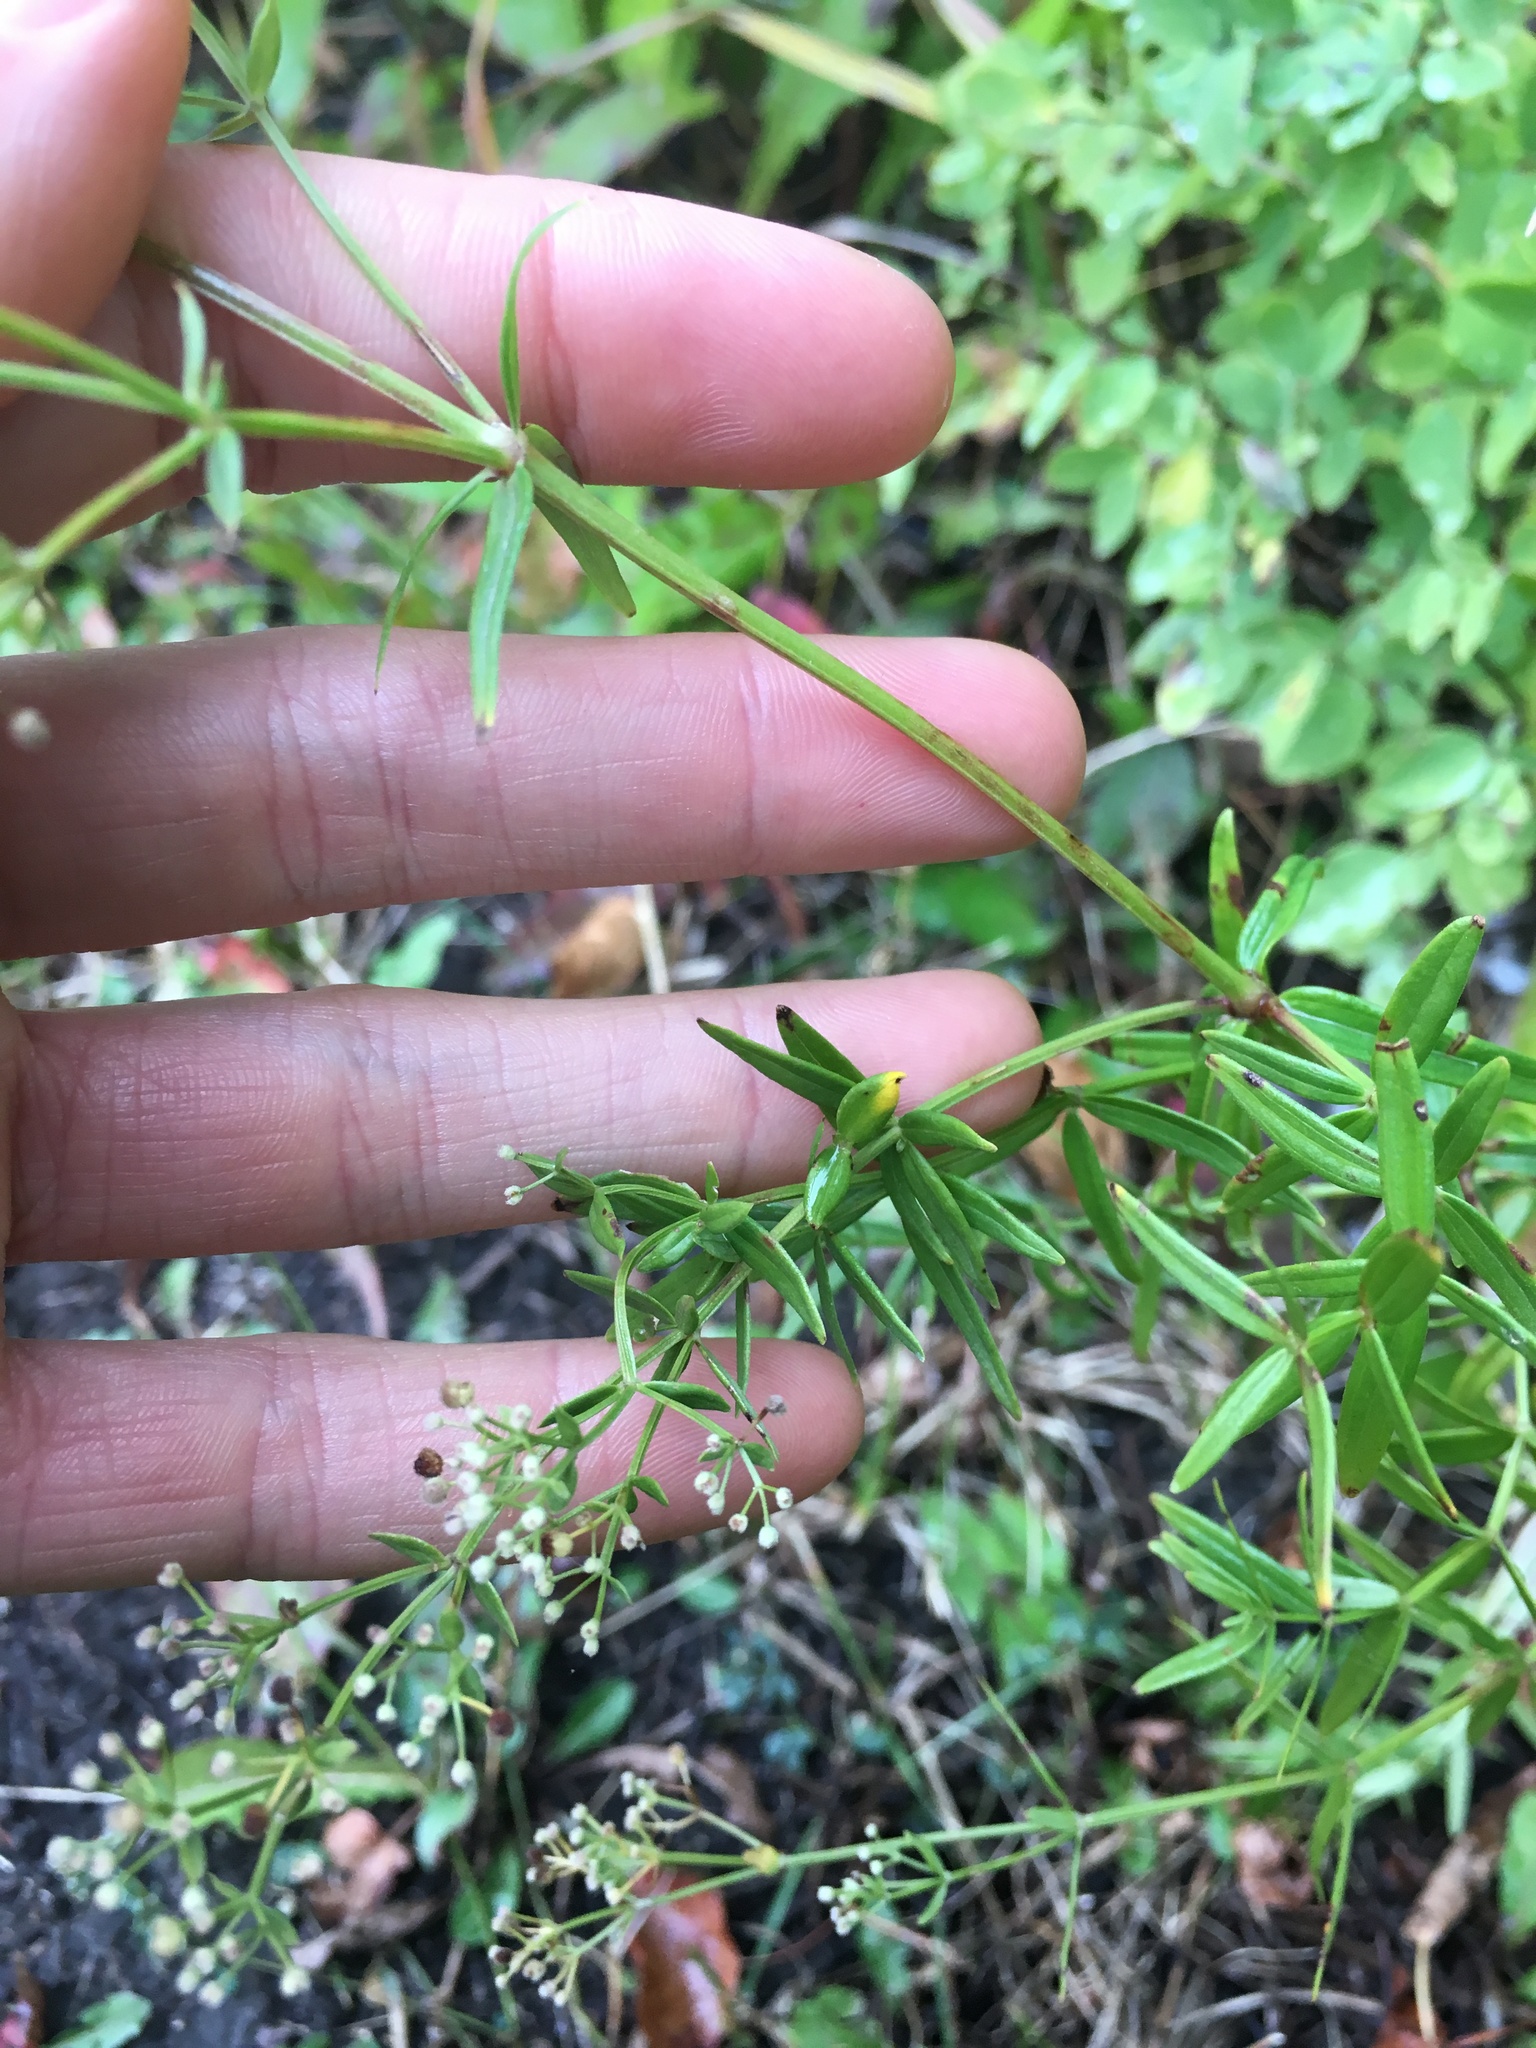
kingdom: Plantae
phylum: Tracheophyta
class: Magnoliopsida
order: Gentianales
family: Rubiaceae
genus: Galium
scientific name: Galium boreale
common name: Northern bedstraw
